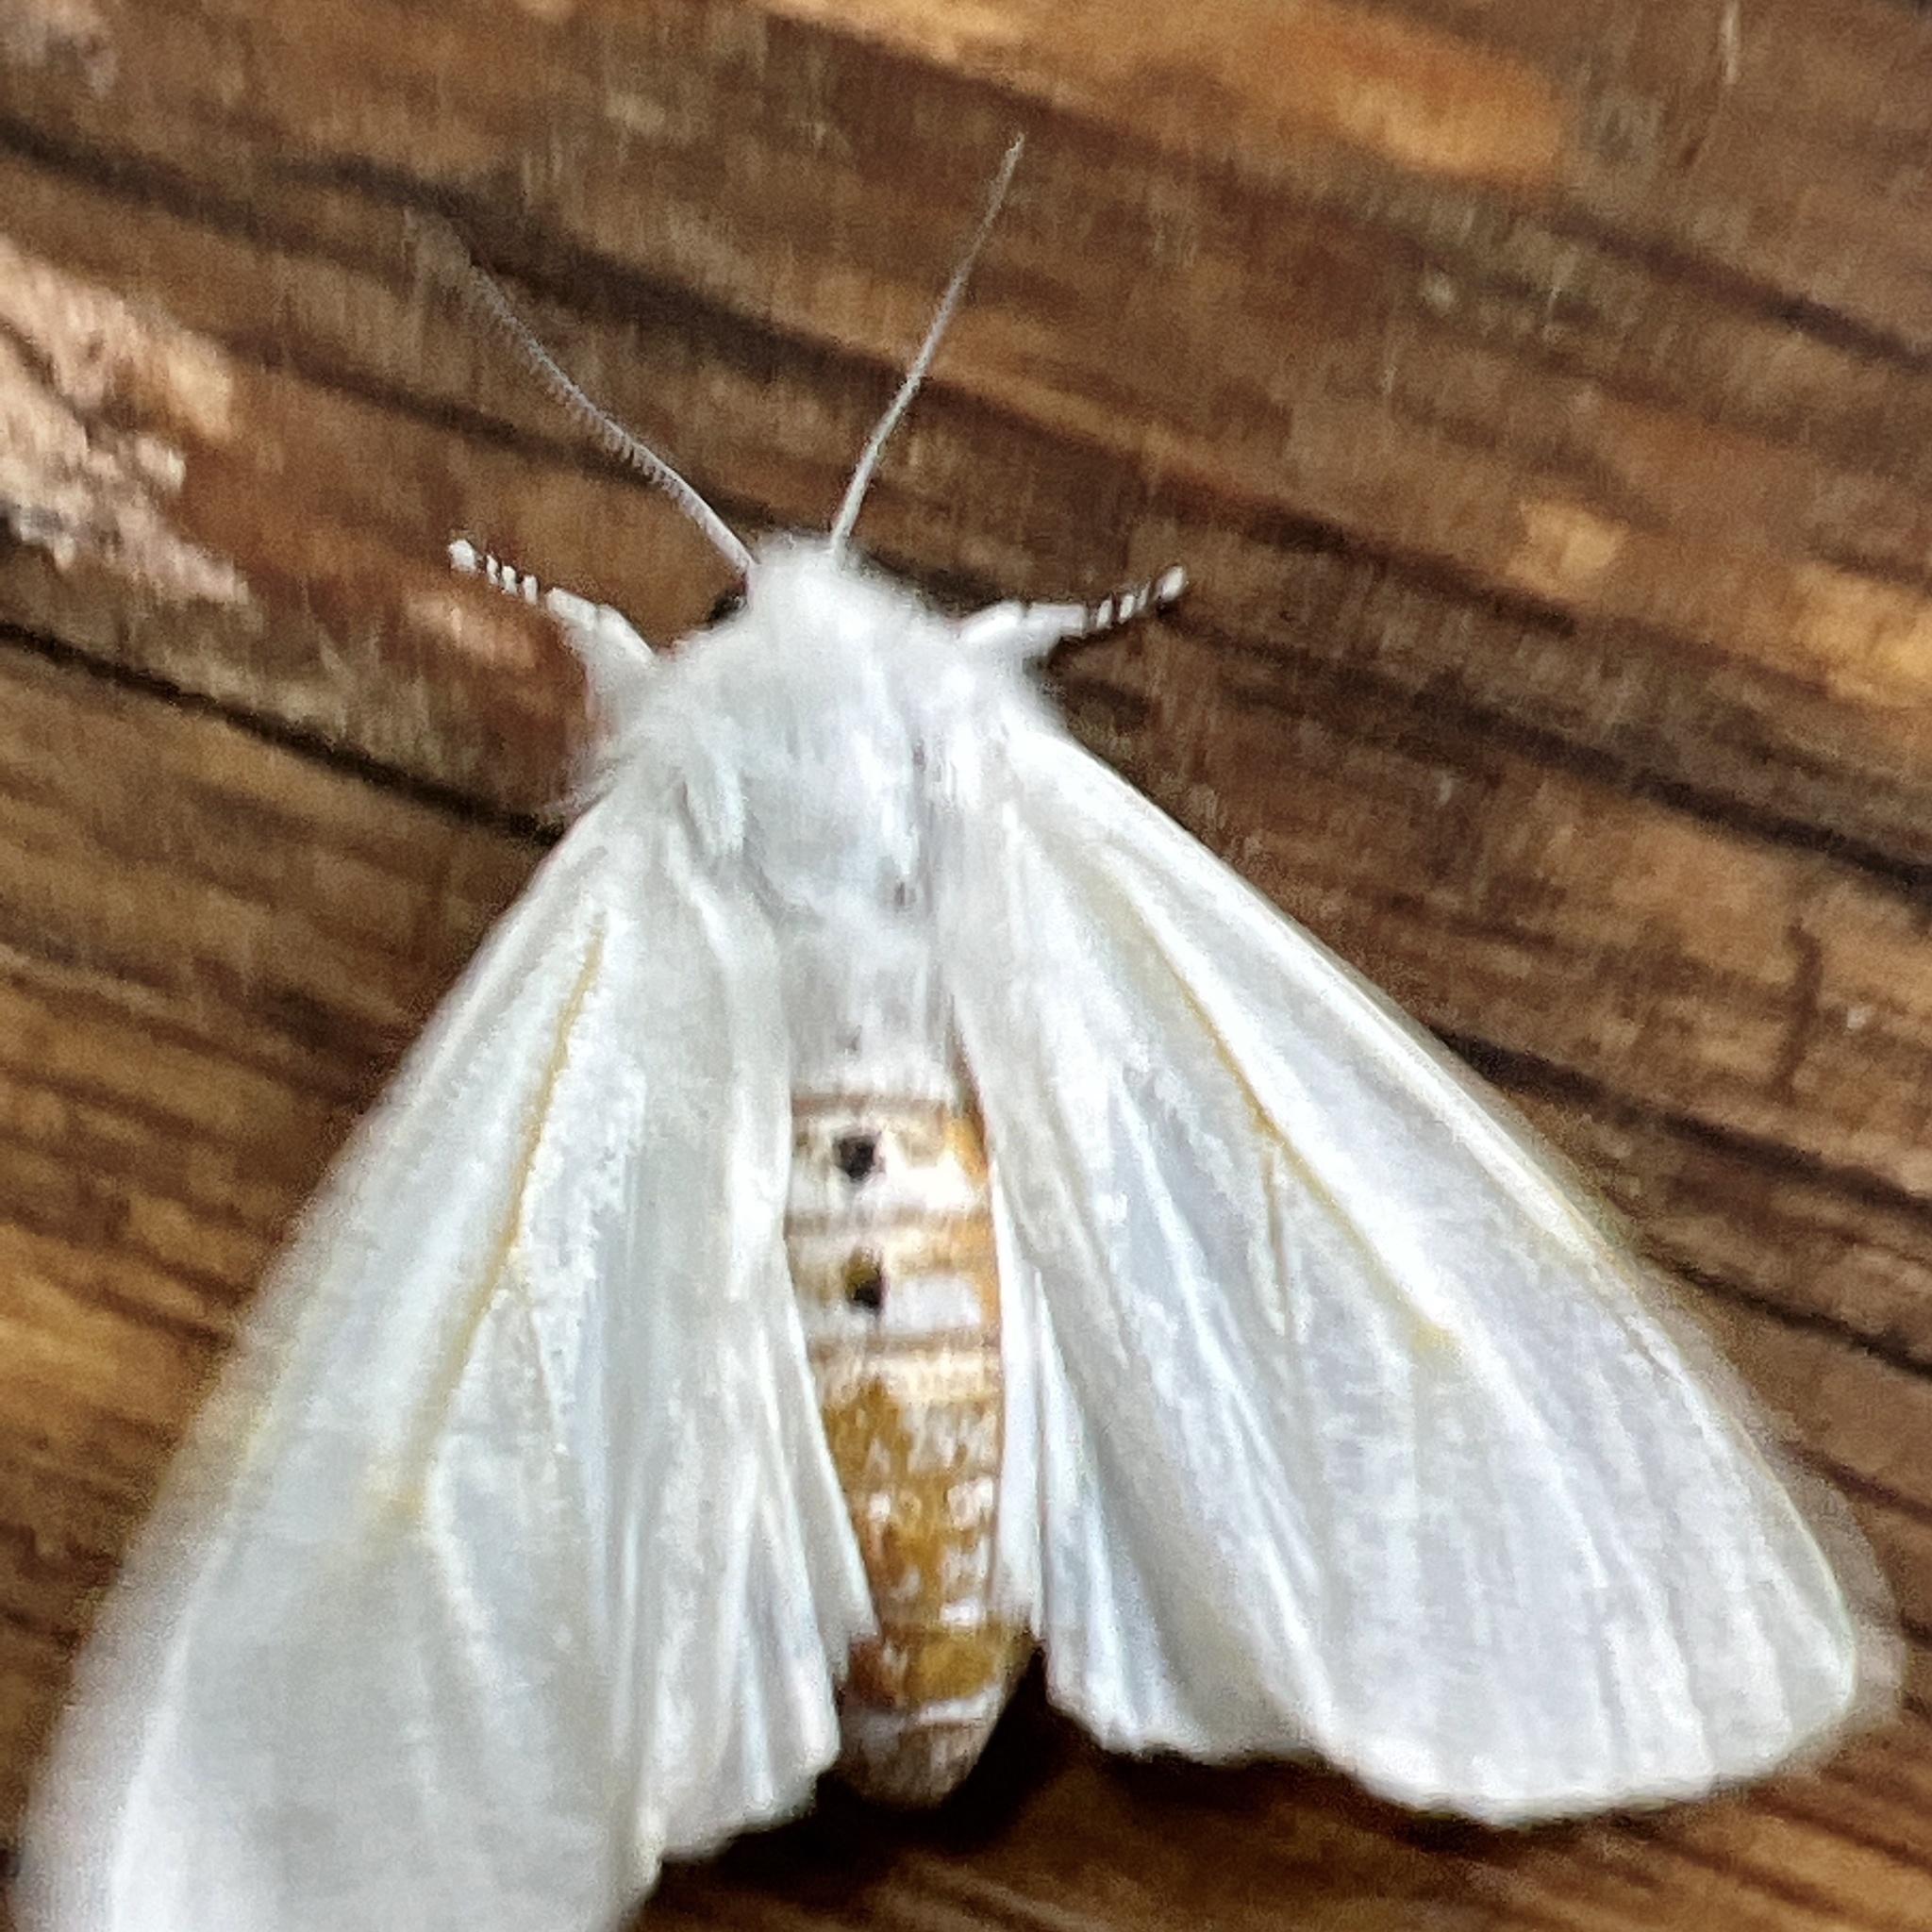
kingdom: Animalia
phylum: Arthropoda
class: Insecta
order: Lepidoptera
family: Erebidae
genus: Spilosoma
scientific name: Spilosoma virginica
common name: Virginia tiger moth
